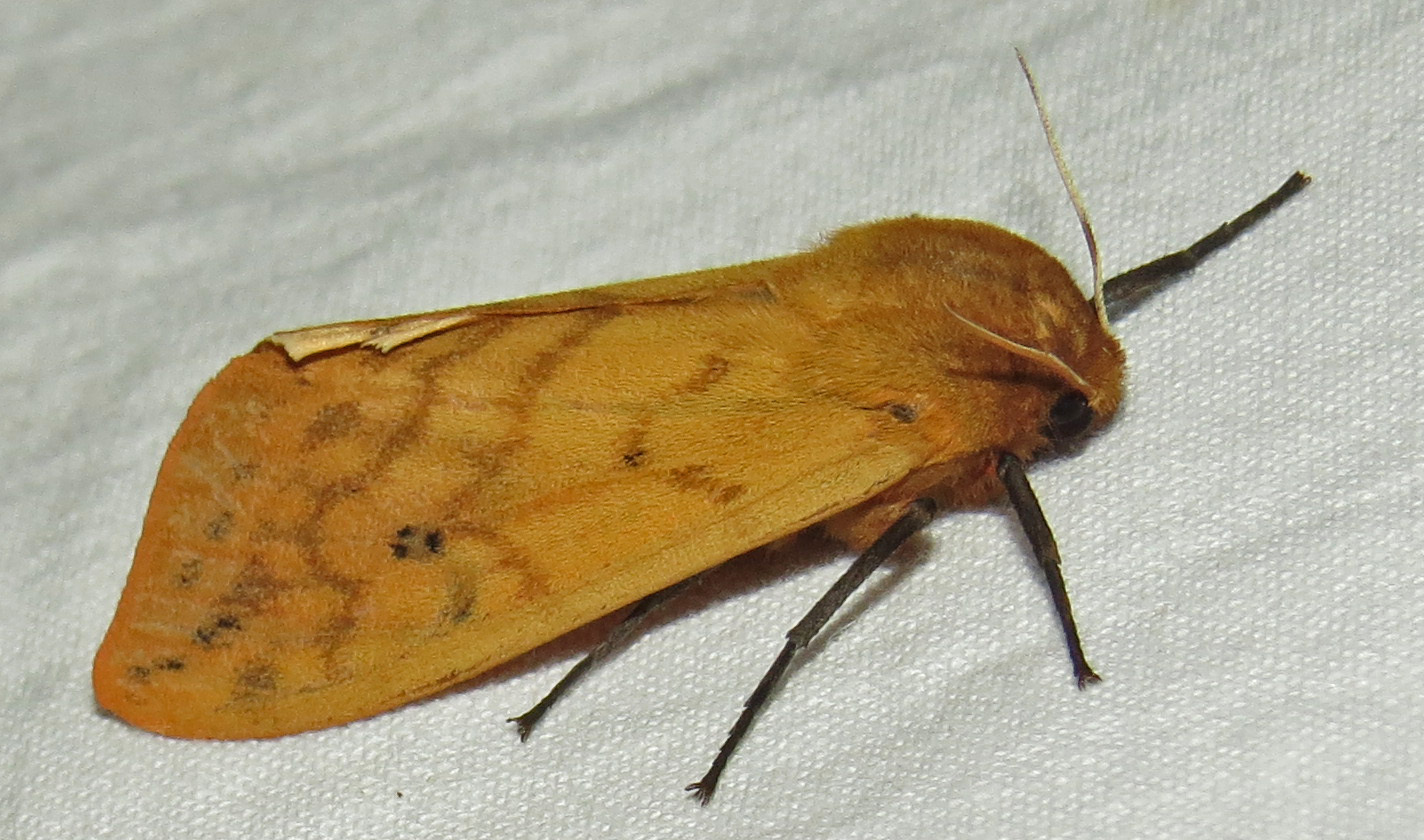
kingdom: Animalia
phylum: Arthropoda
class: Insecta
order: Lepidoptera
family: Erebidae
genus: Pyrrharctia
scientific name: Pyrrharctia isabella
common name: Isabella tiger moth
